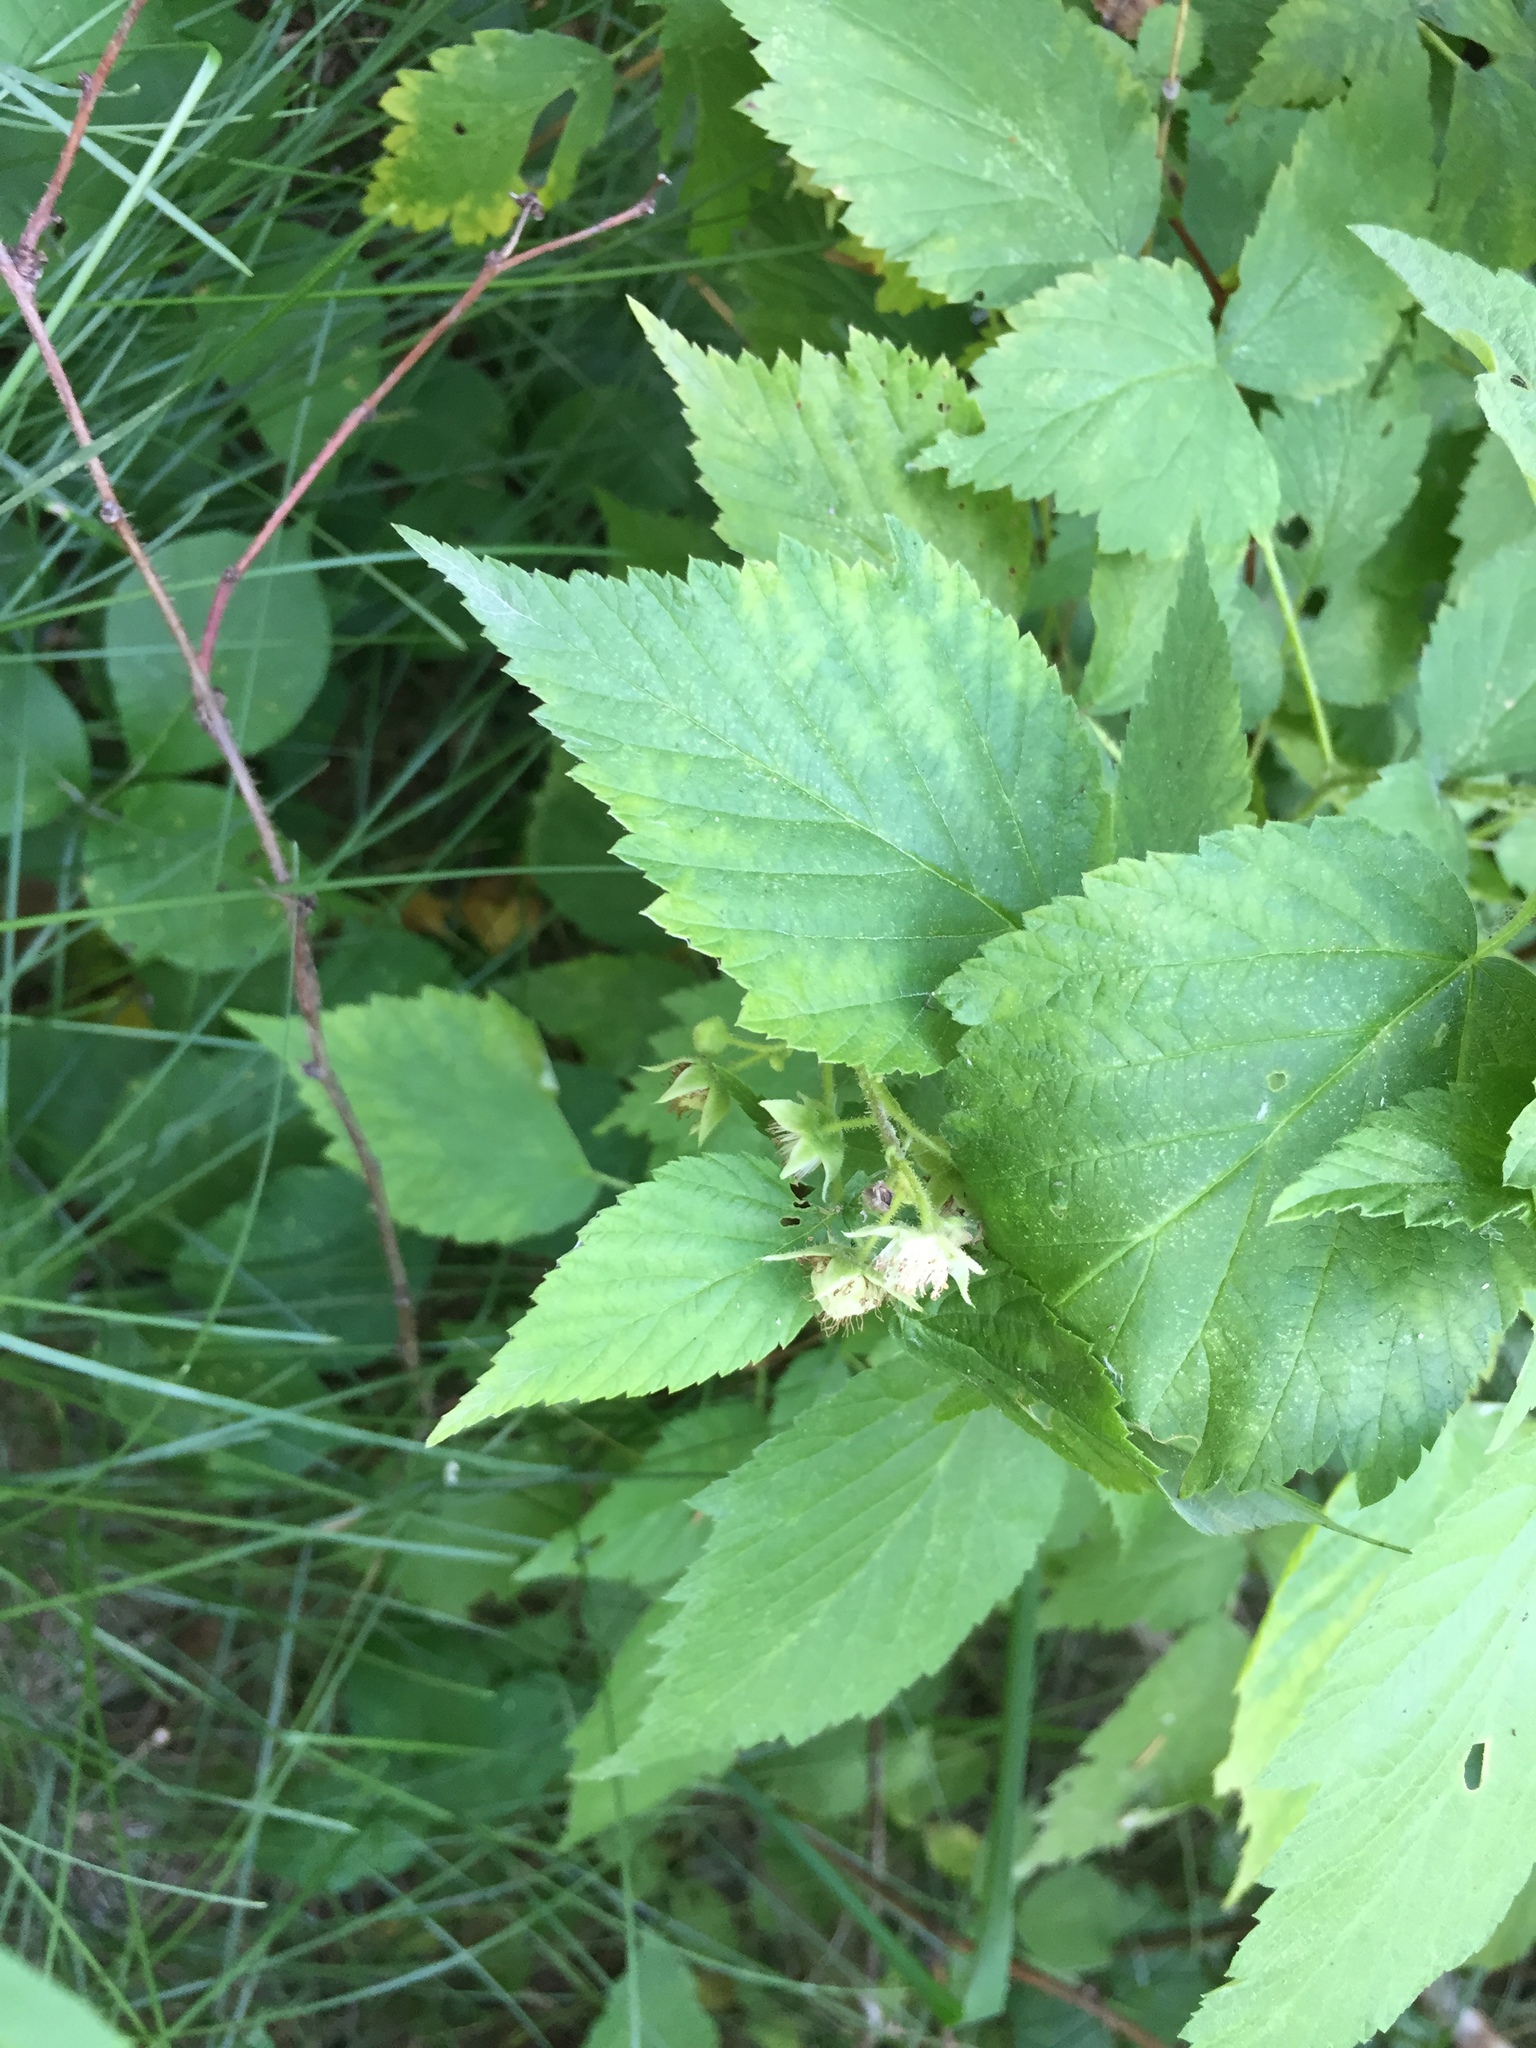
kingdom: Plantae
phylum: Tracheophyta
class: Magnoliopsida
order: Rosales
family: Rosaceae
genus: Rubus
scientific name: Rubus idaeus
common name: Raspberry
